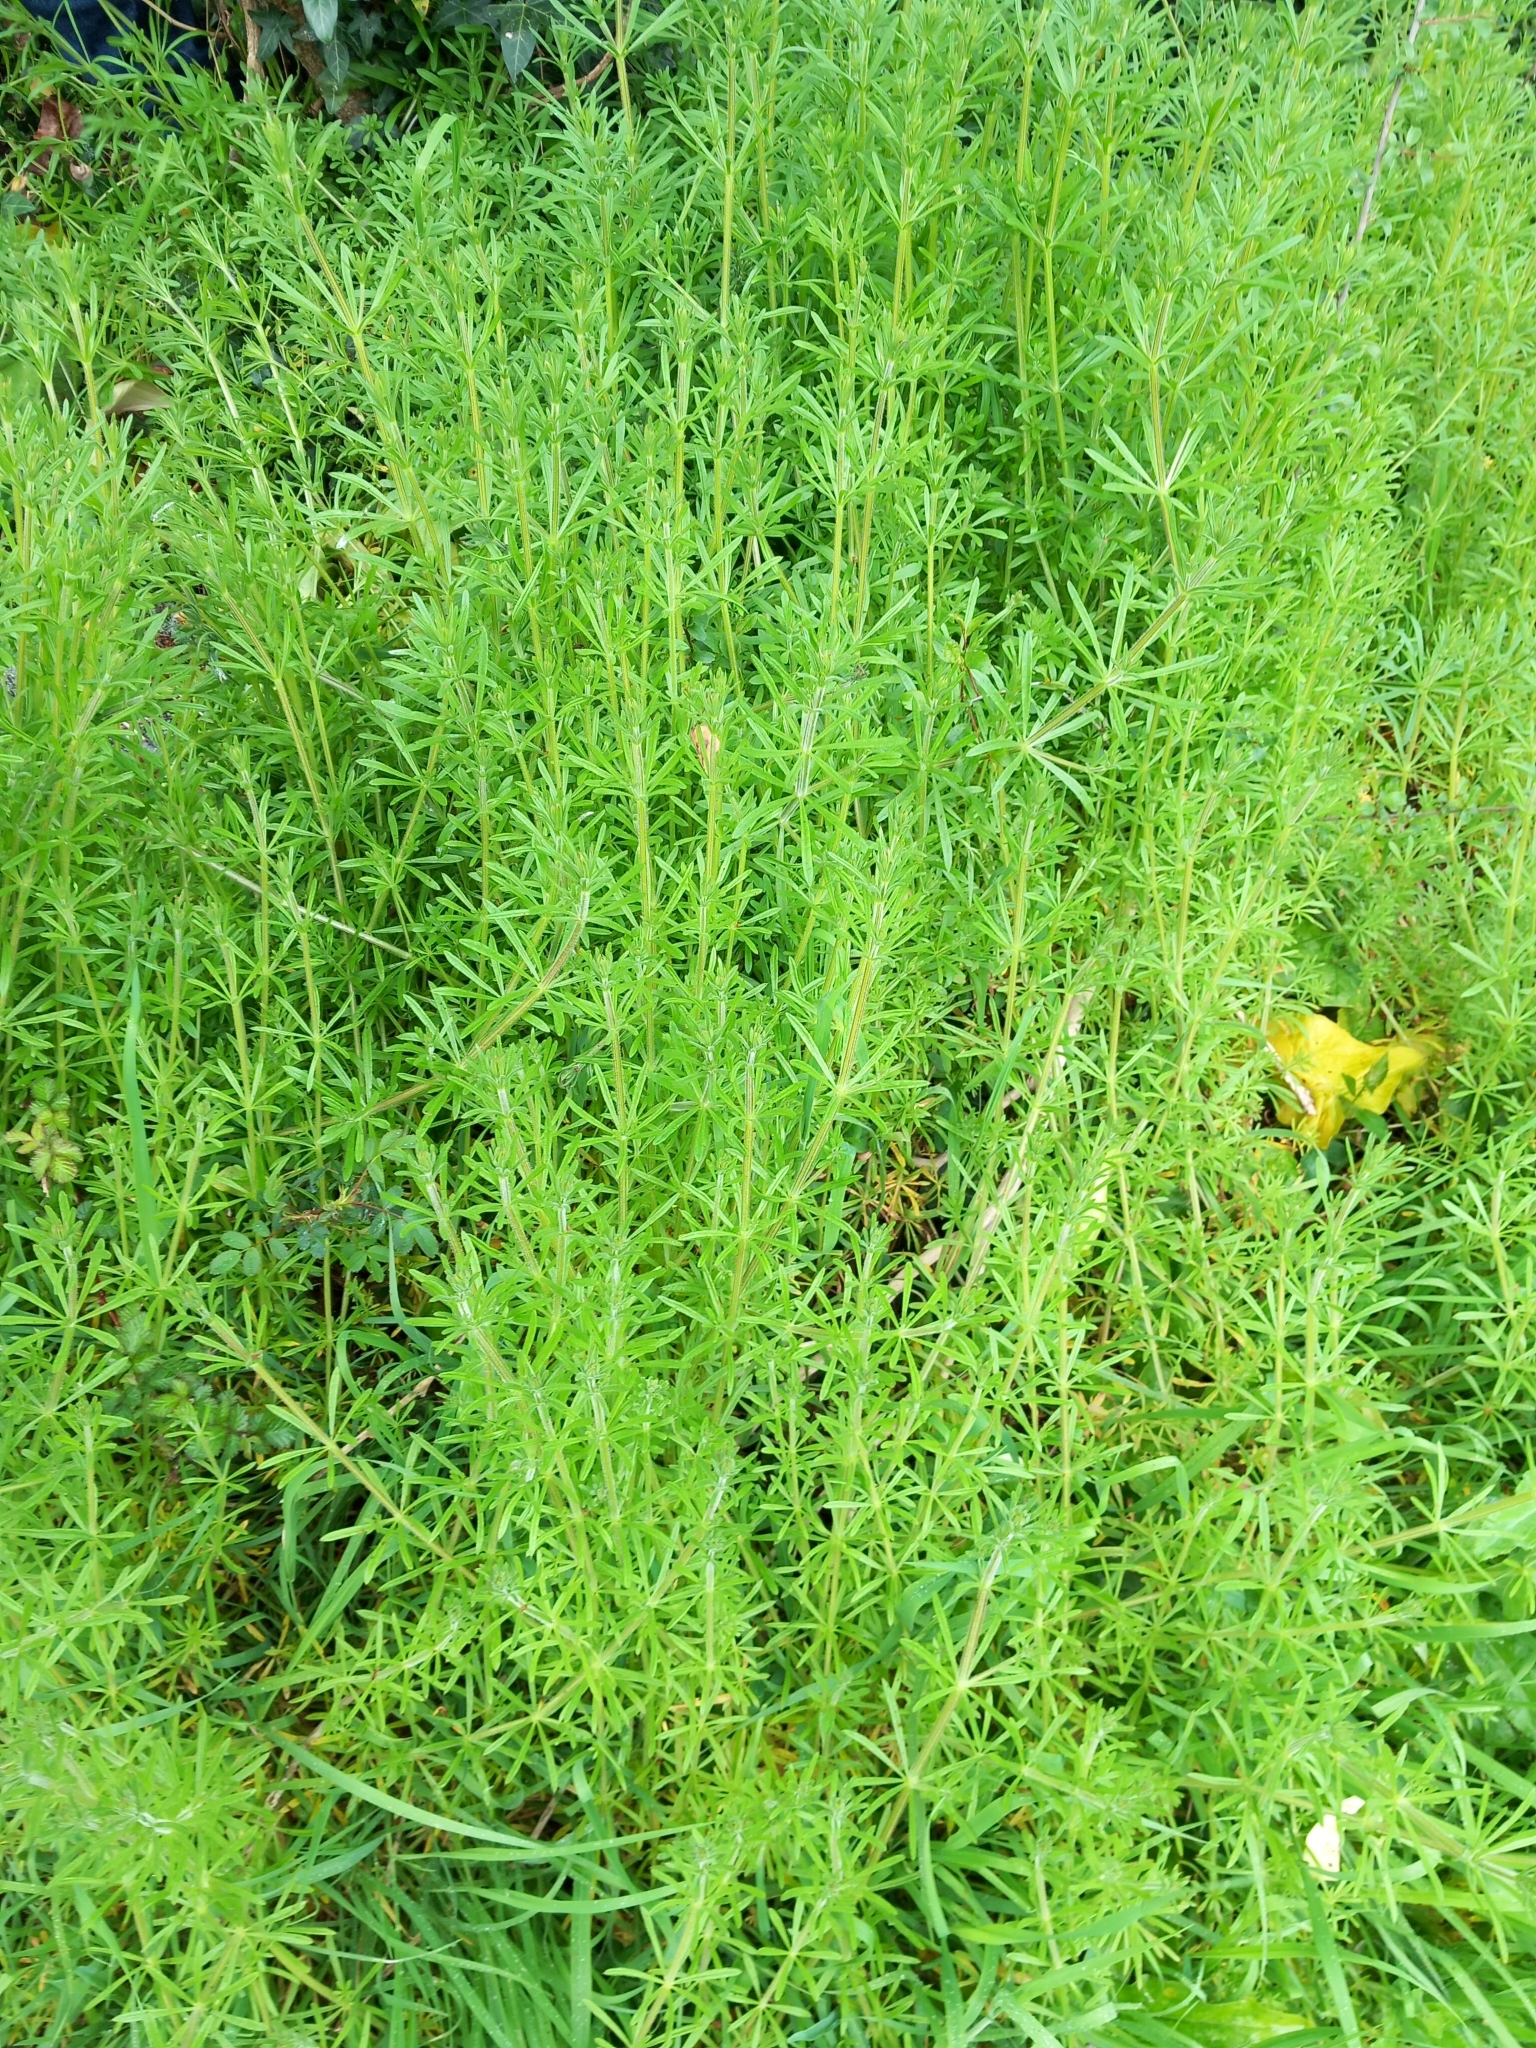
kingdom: Plantae
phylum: Tracheophyta
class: Magnoliopsida
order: Gentianales
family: Rubiaceae
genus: Galium
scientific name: Galium aparine
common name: Cleavers
